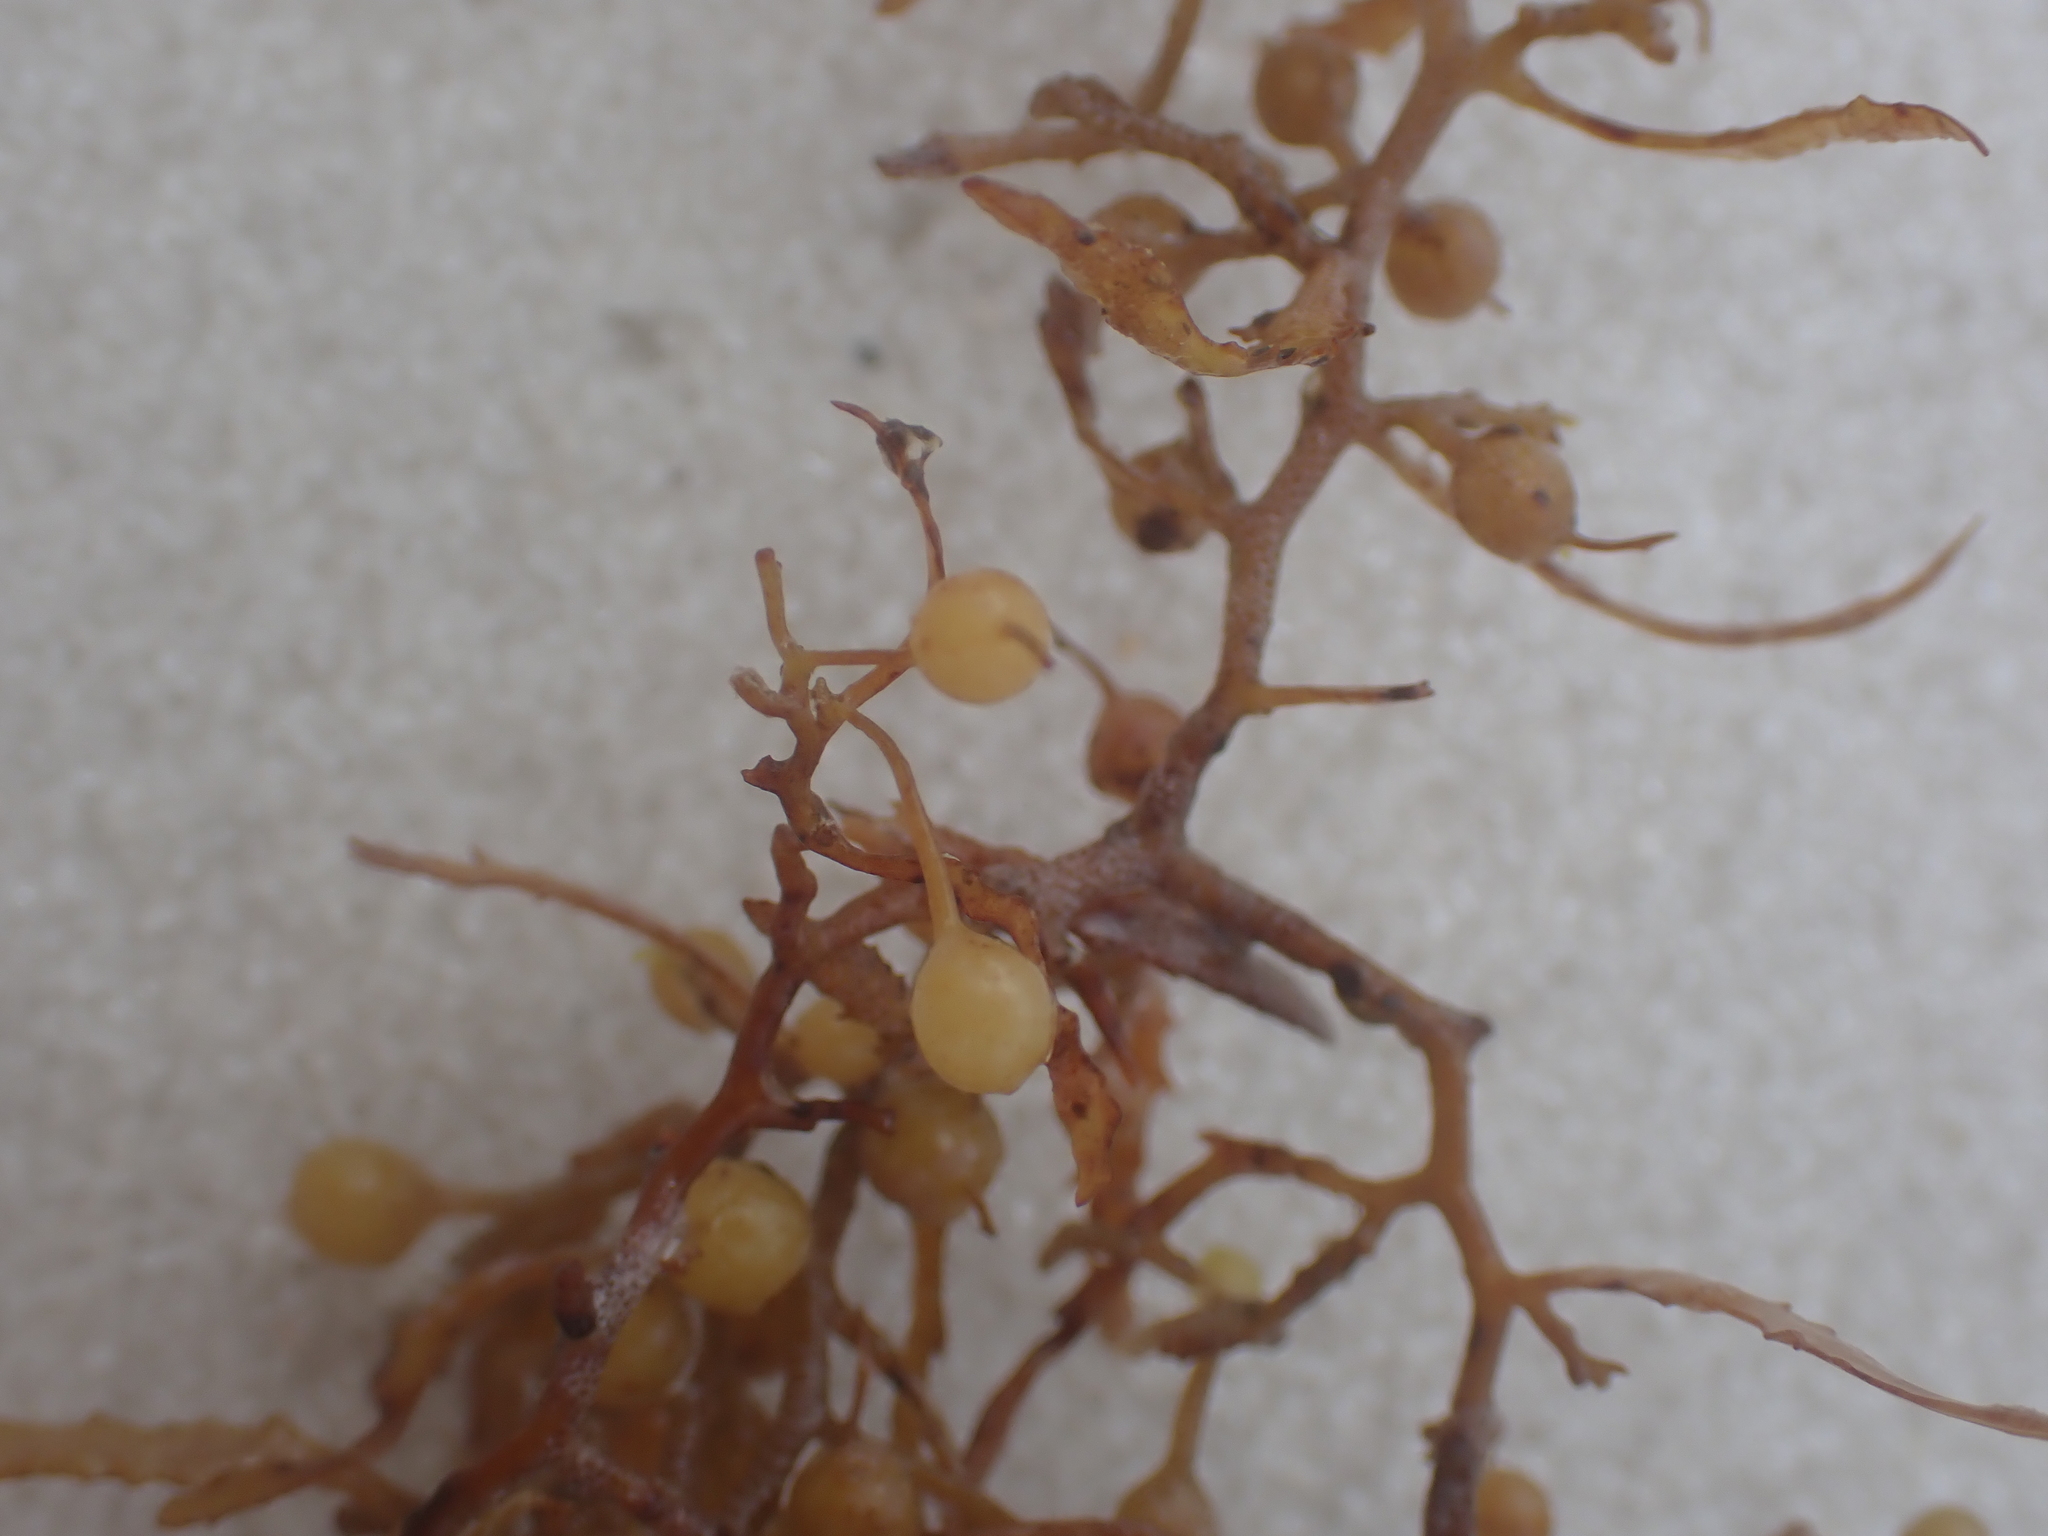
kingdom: Chromista
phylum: Ochrophyta
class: Phaeophyceae
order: Fucales
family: Sargassaceae
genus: Sargassum
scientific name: Sargassum fluitans
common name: Sargassum seaweed
